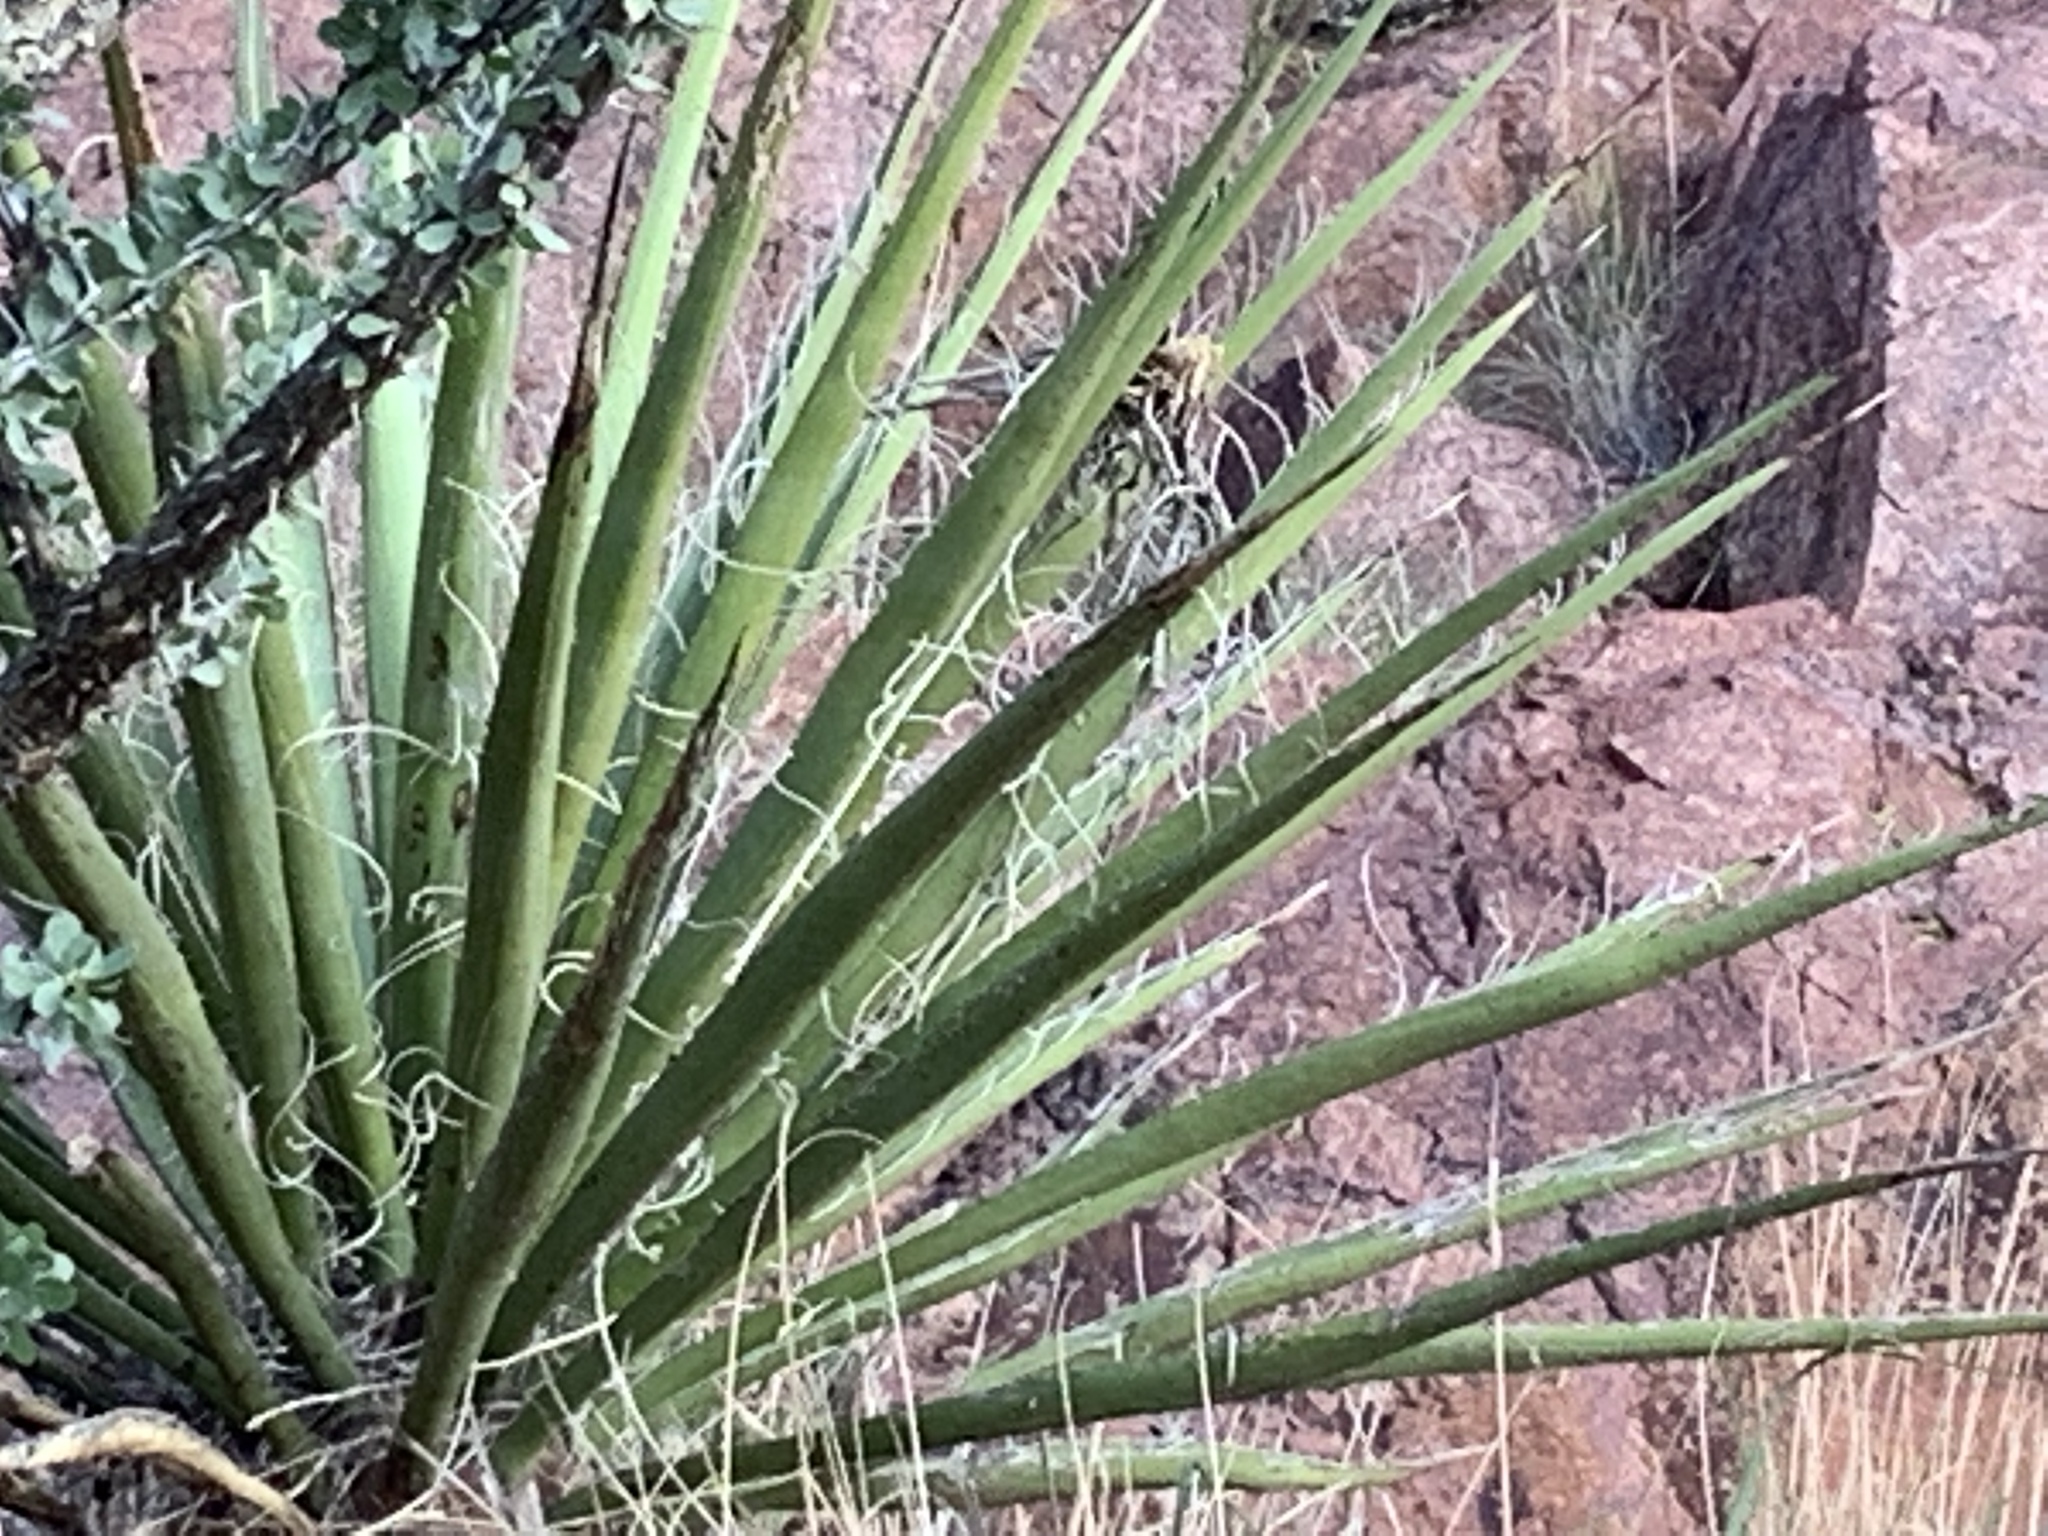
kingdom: Plantae
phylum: Tracheophyta
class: Liliopsida
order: Asparagales
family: Asparagaceae
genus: Yucca
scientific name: Yucca baccata
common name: Banana yucca
